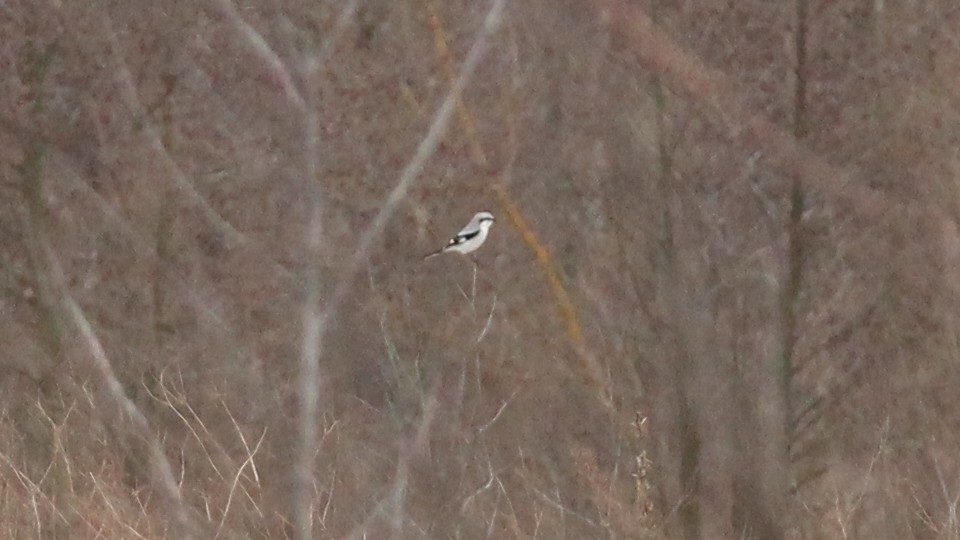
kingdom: Animalia
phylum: Chordata
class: Aves
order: Passeriformes
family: Laniidae
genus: Lanius
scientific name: Lanius excubitor
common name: Great grey shrike
